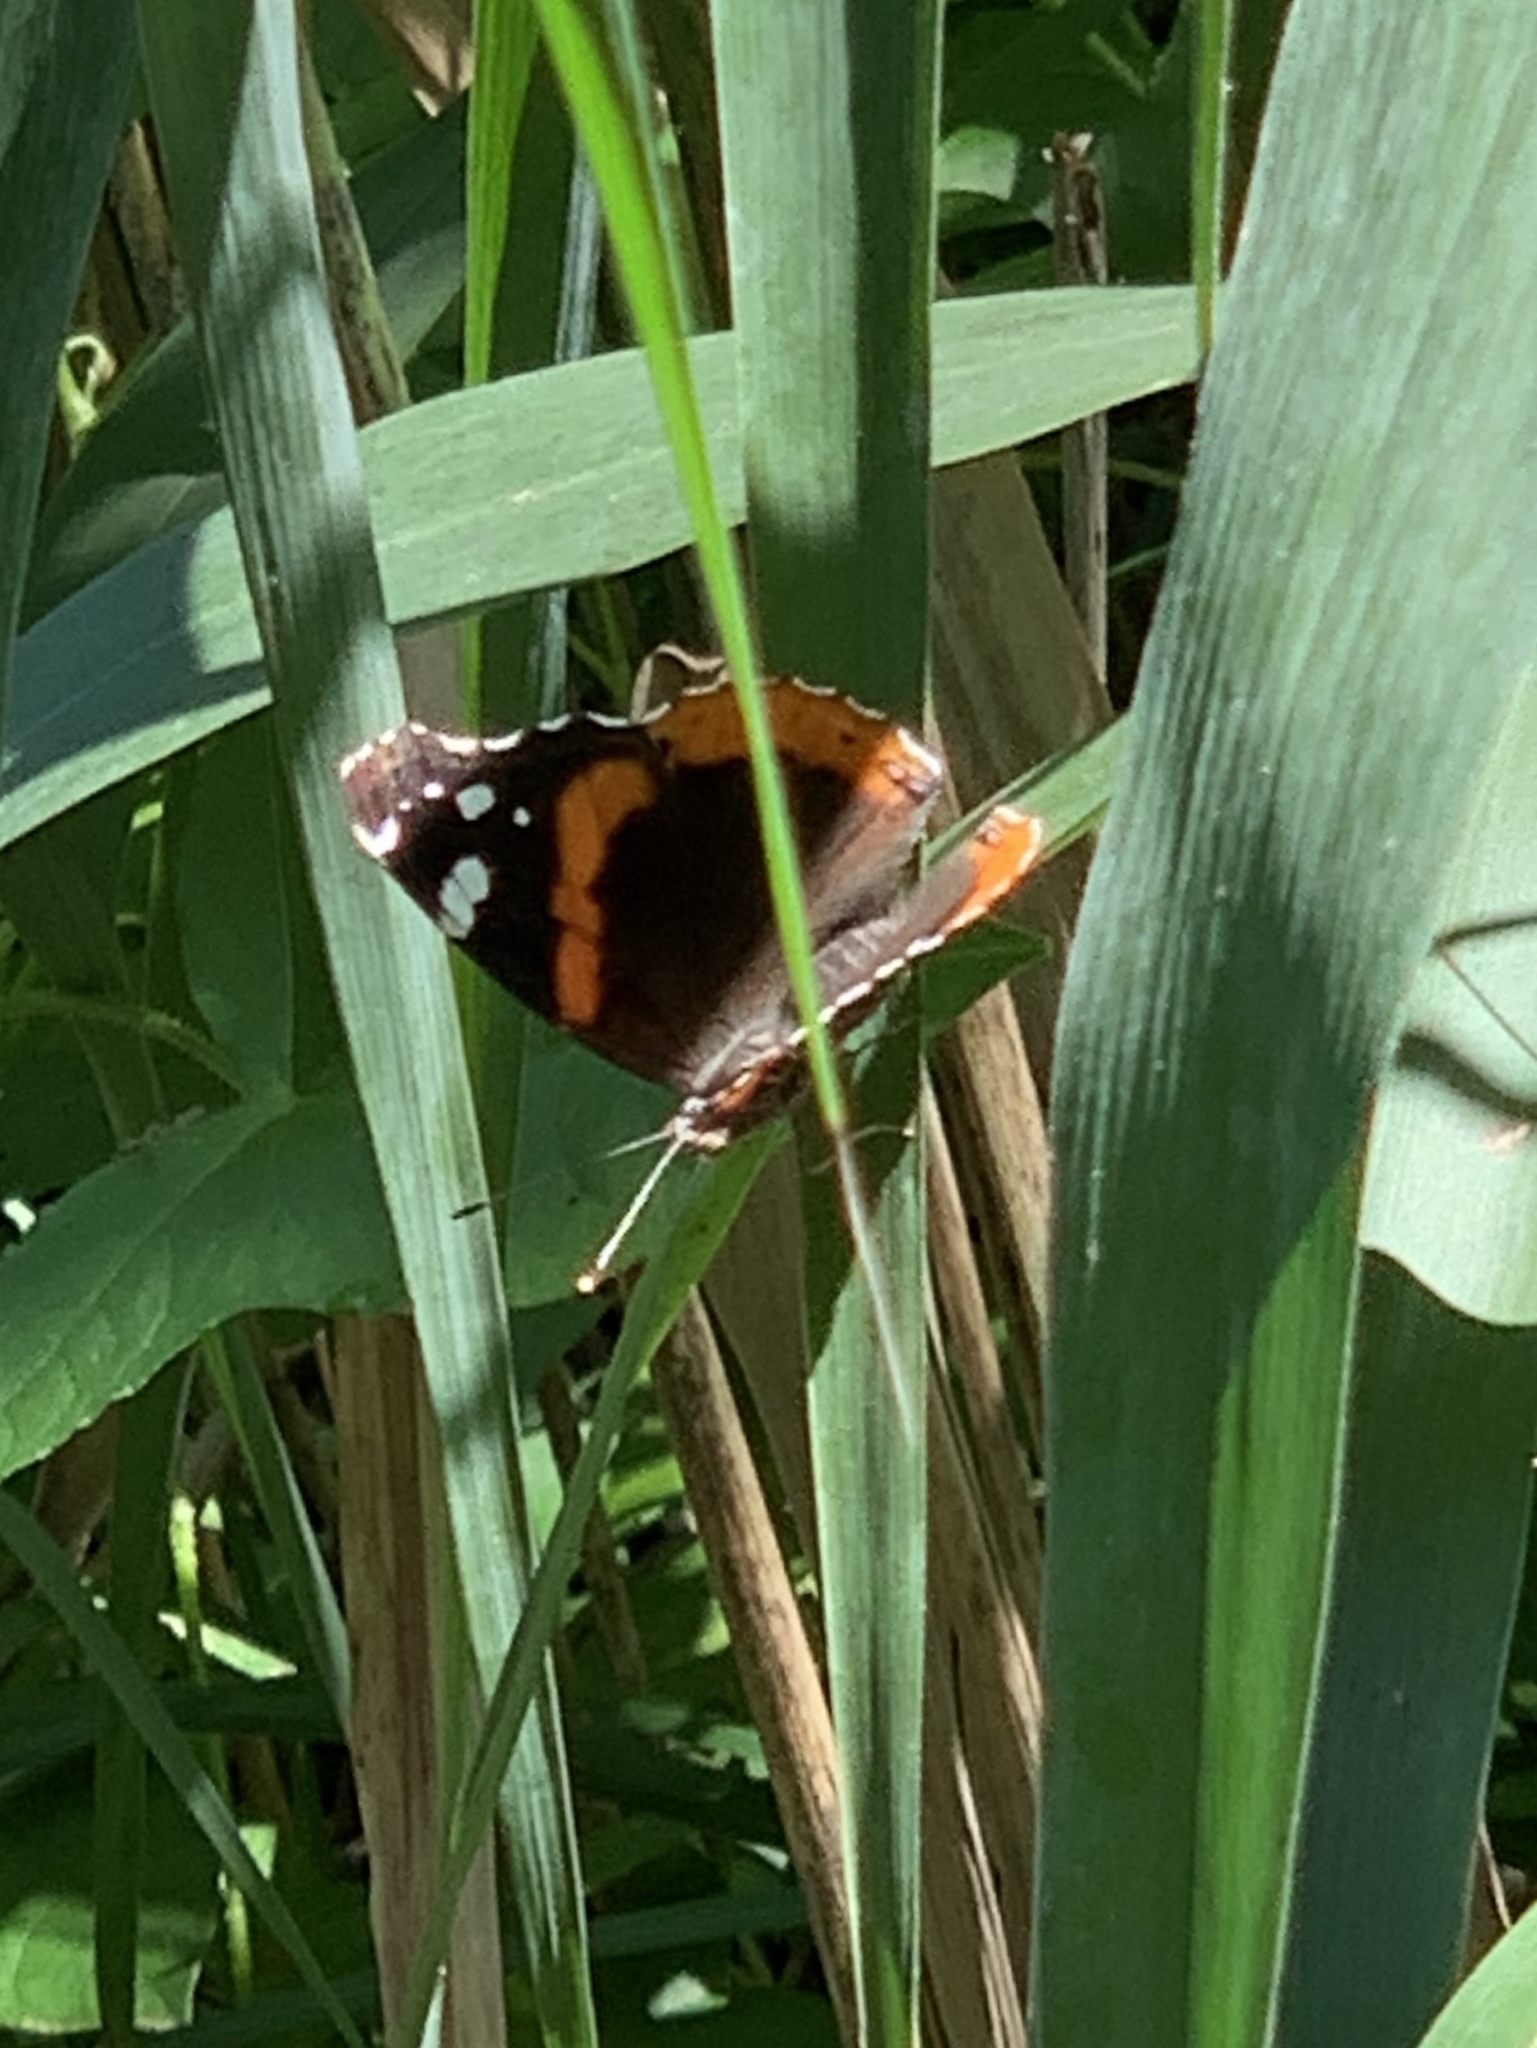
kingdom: Animalia
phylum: Arthropoda
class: Insecta
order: Lepidoptera
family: Nymphalidae
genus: Vanessa
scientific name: Vanessa atalanta
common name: Red admiral
